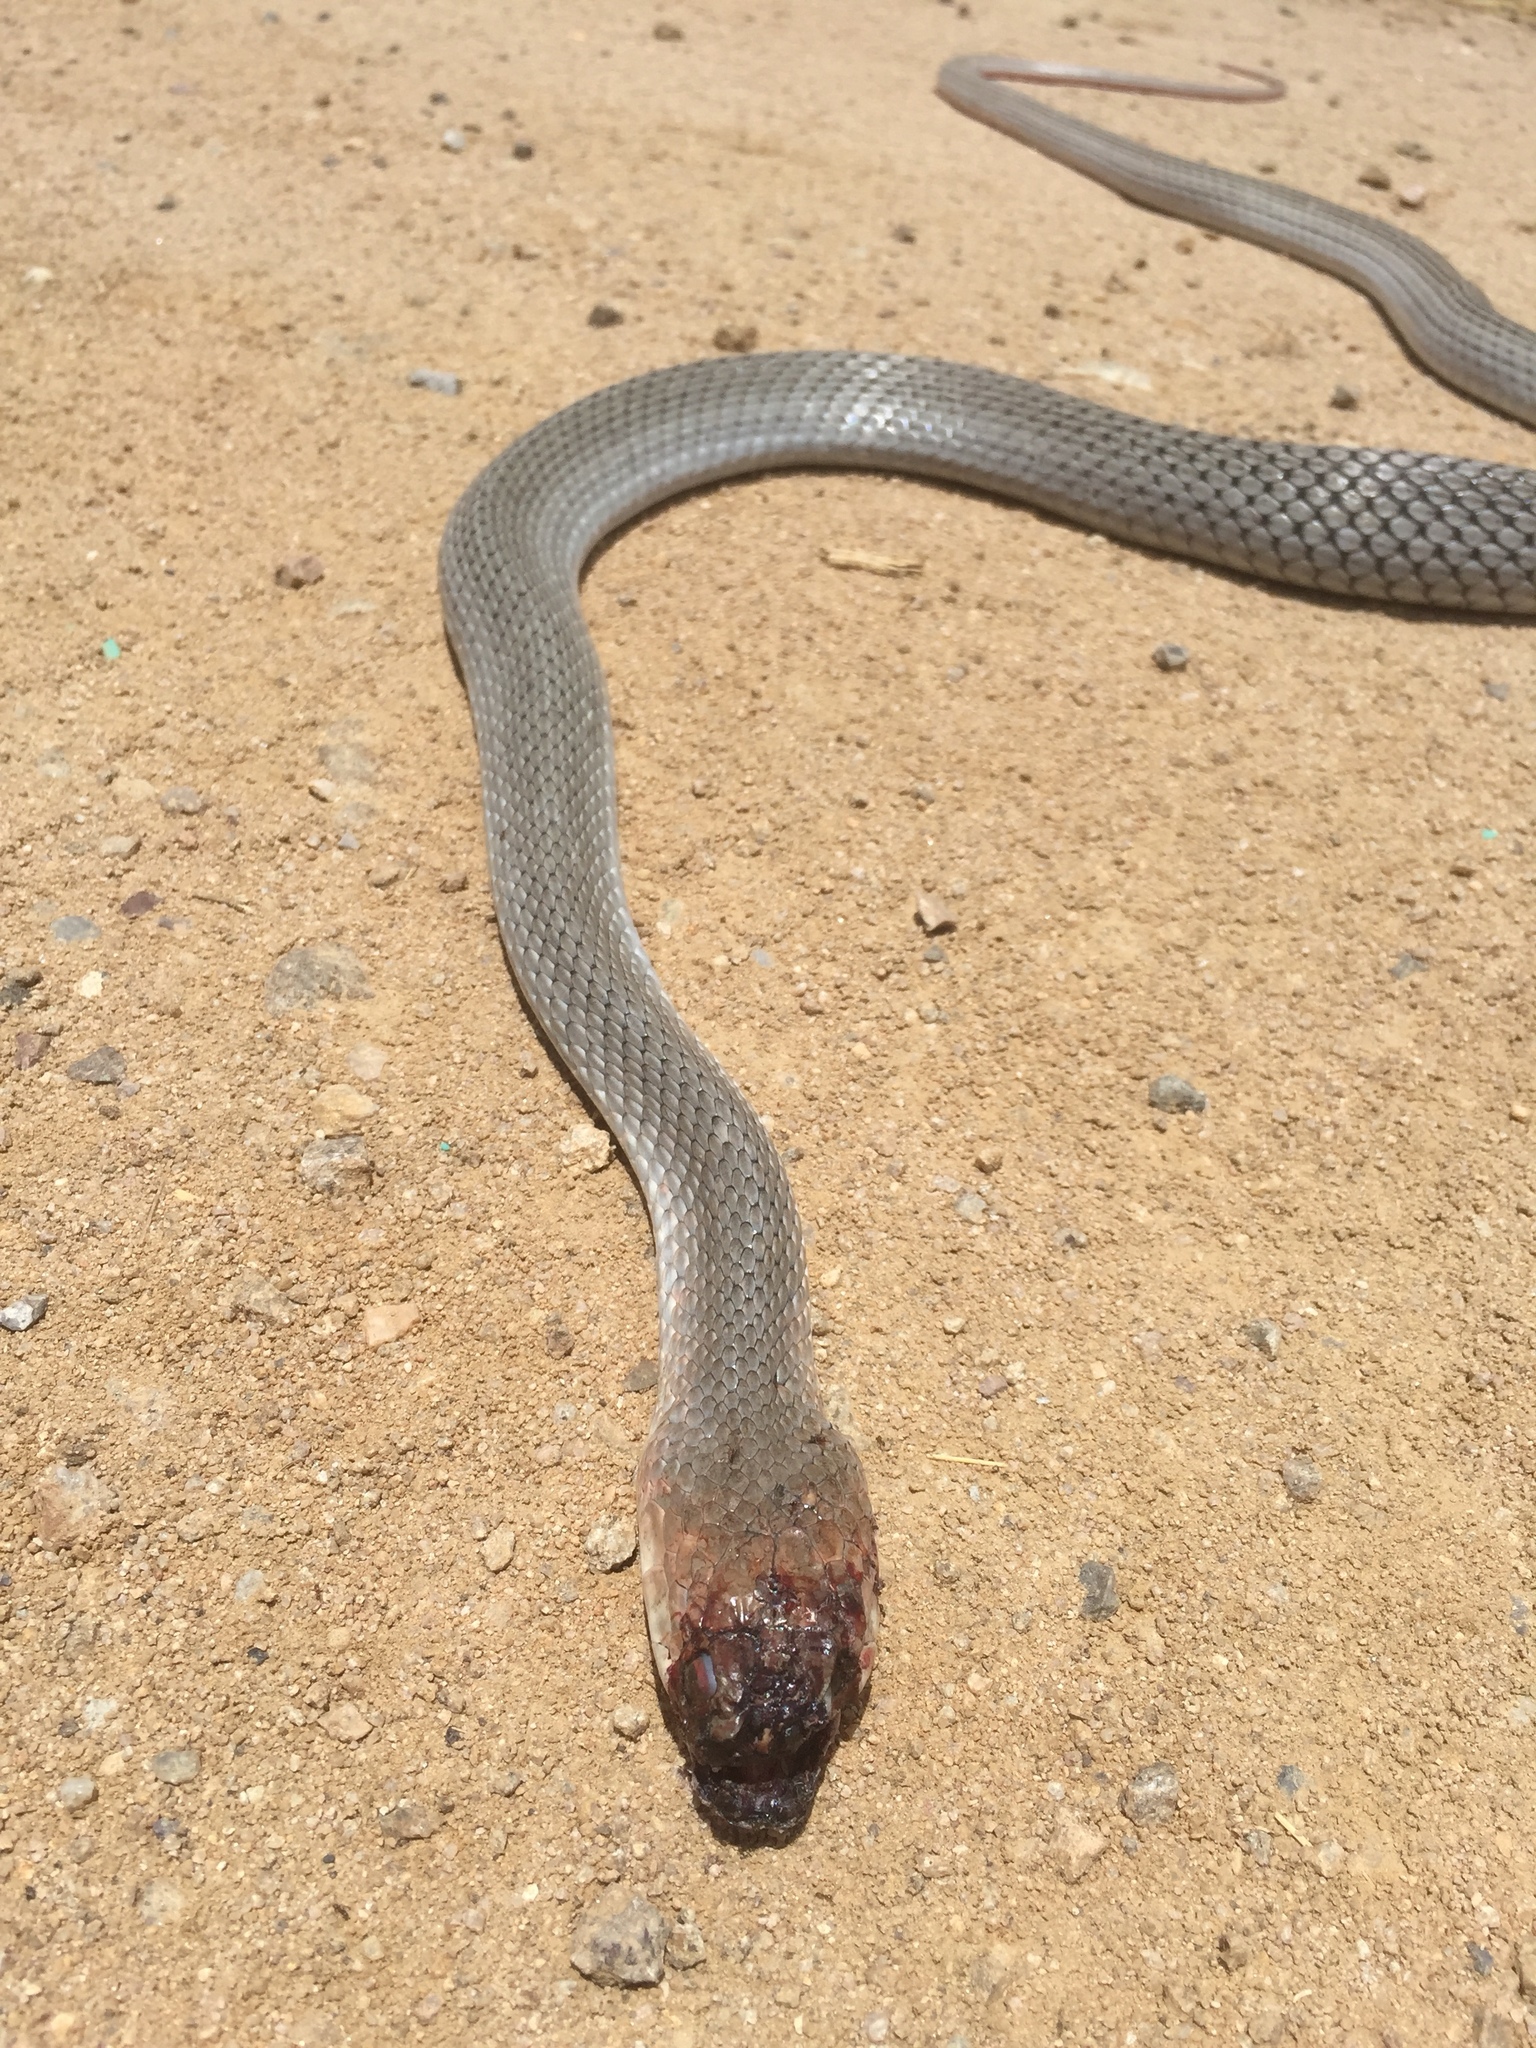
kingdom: Animalia
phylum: Chordata
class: Squamata
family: Colubridae
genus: Masticophis
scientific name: Masticophis mentovarius
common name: Neotropical whip snake
